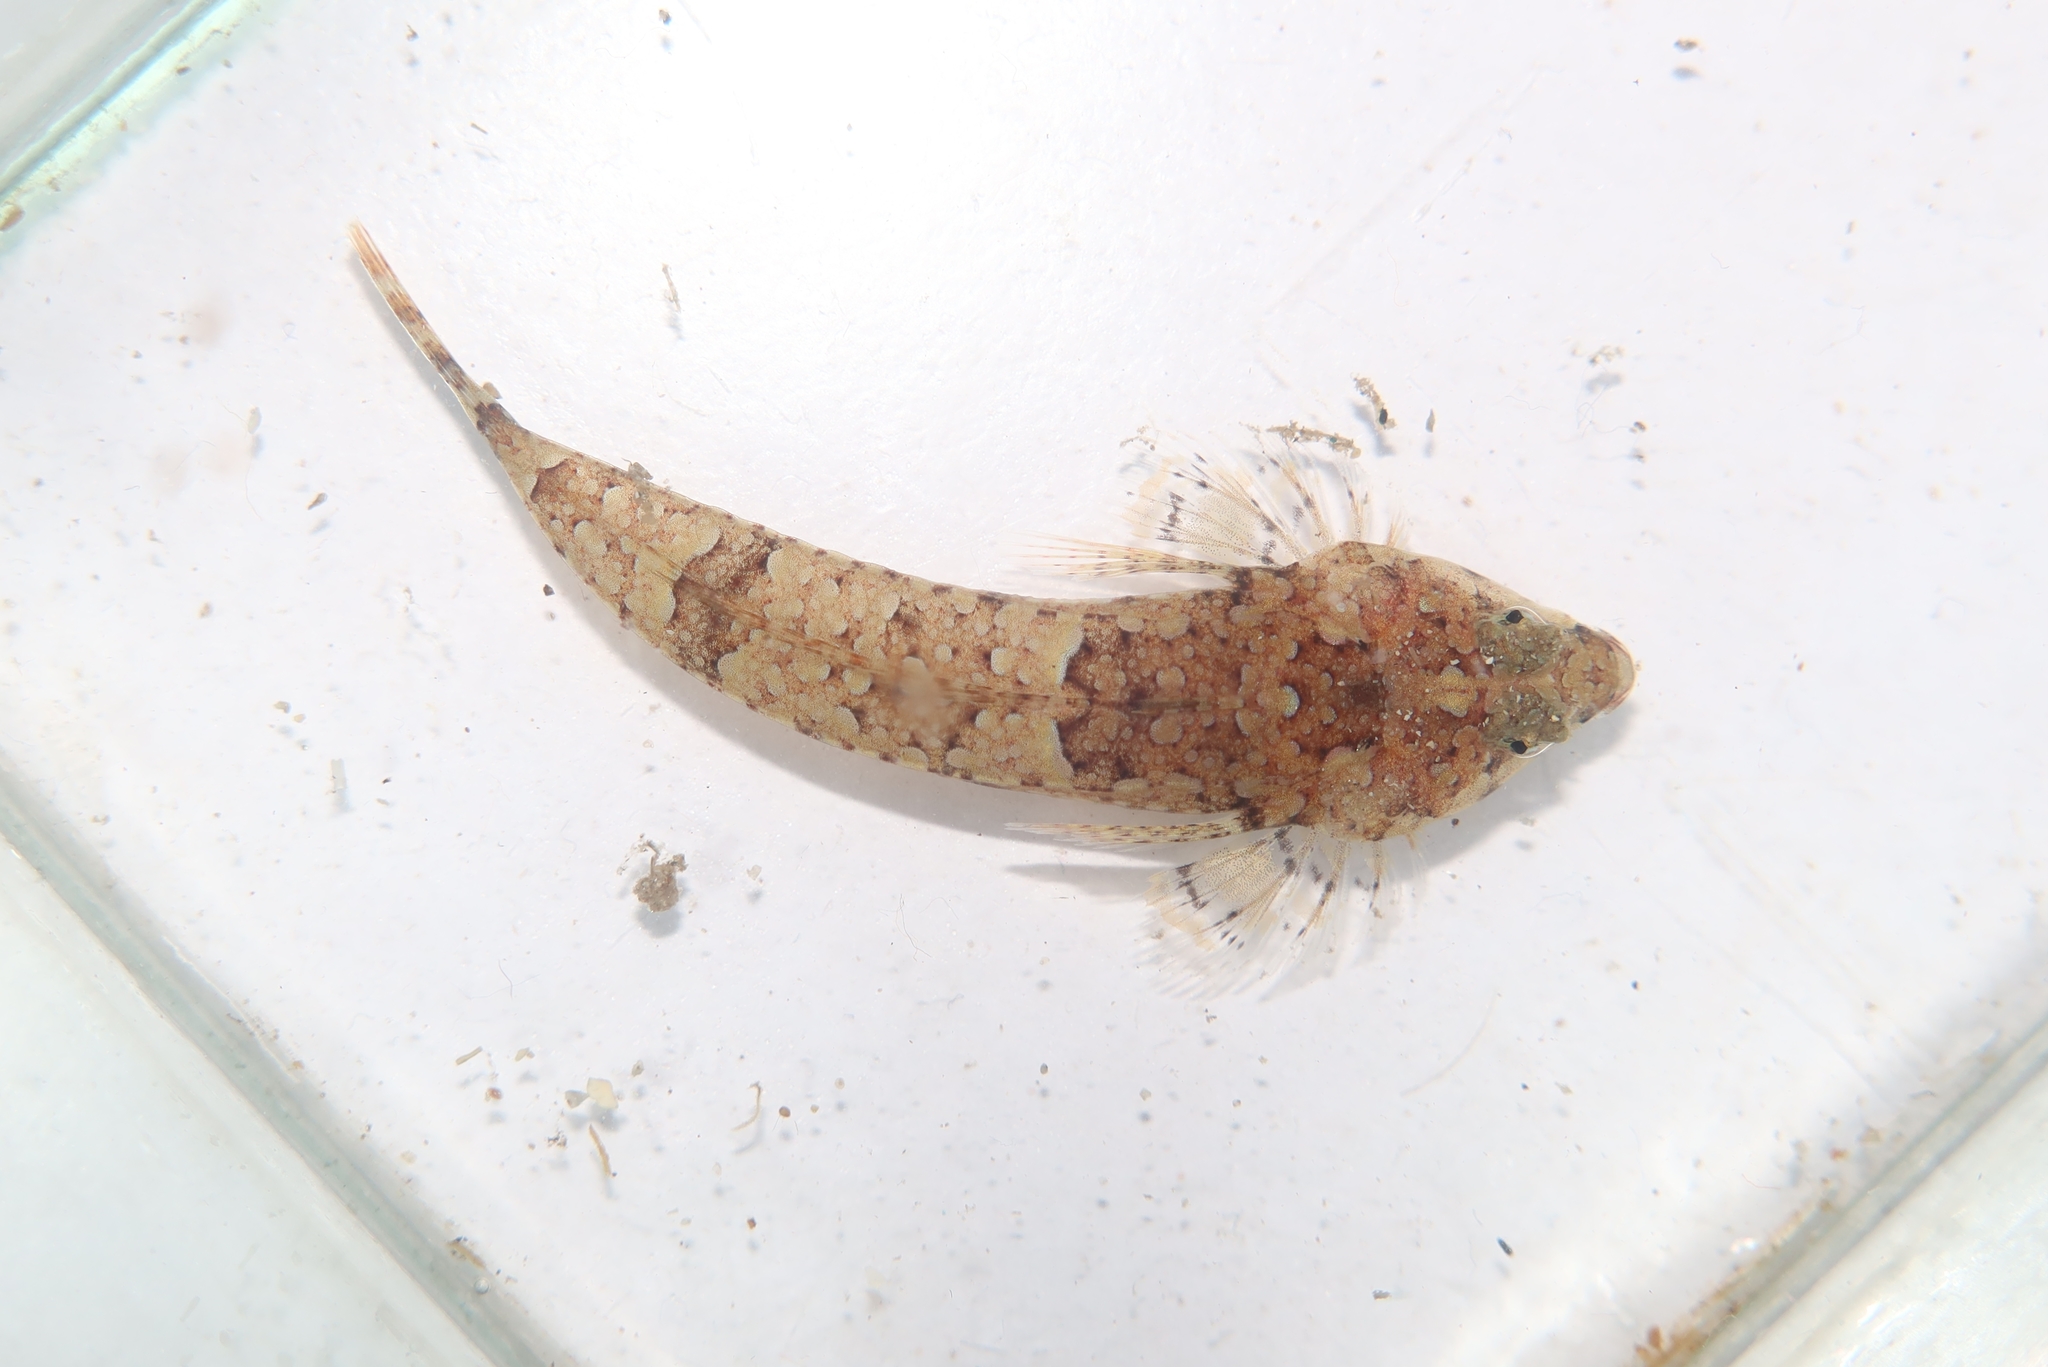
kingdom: Animalia
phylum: Chordata
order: Perciformes
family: Callionymidae
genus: Callionymus
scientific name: Callionymus reticulatus
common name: Reticulated dragonet
